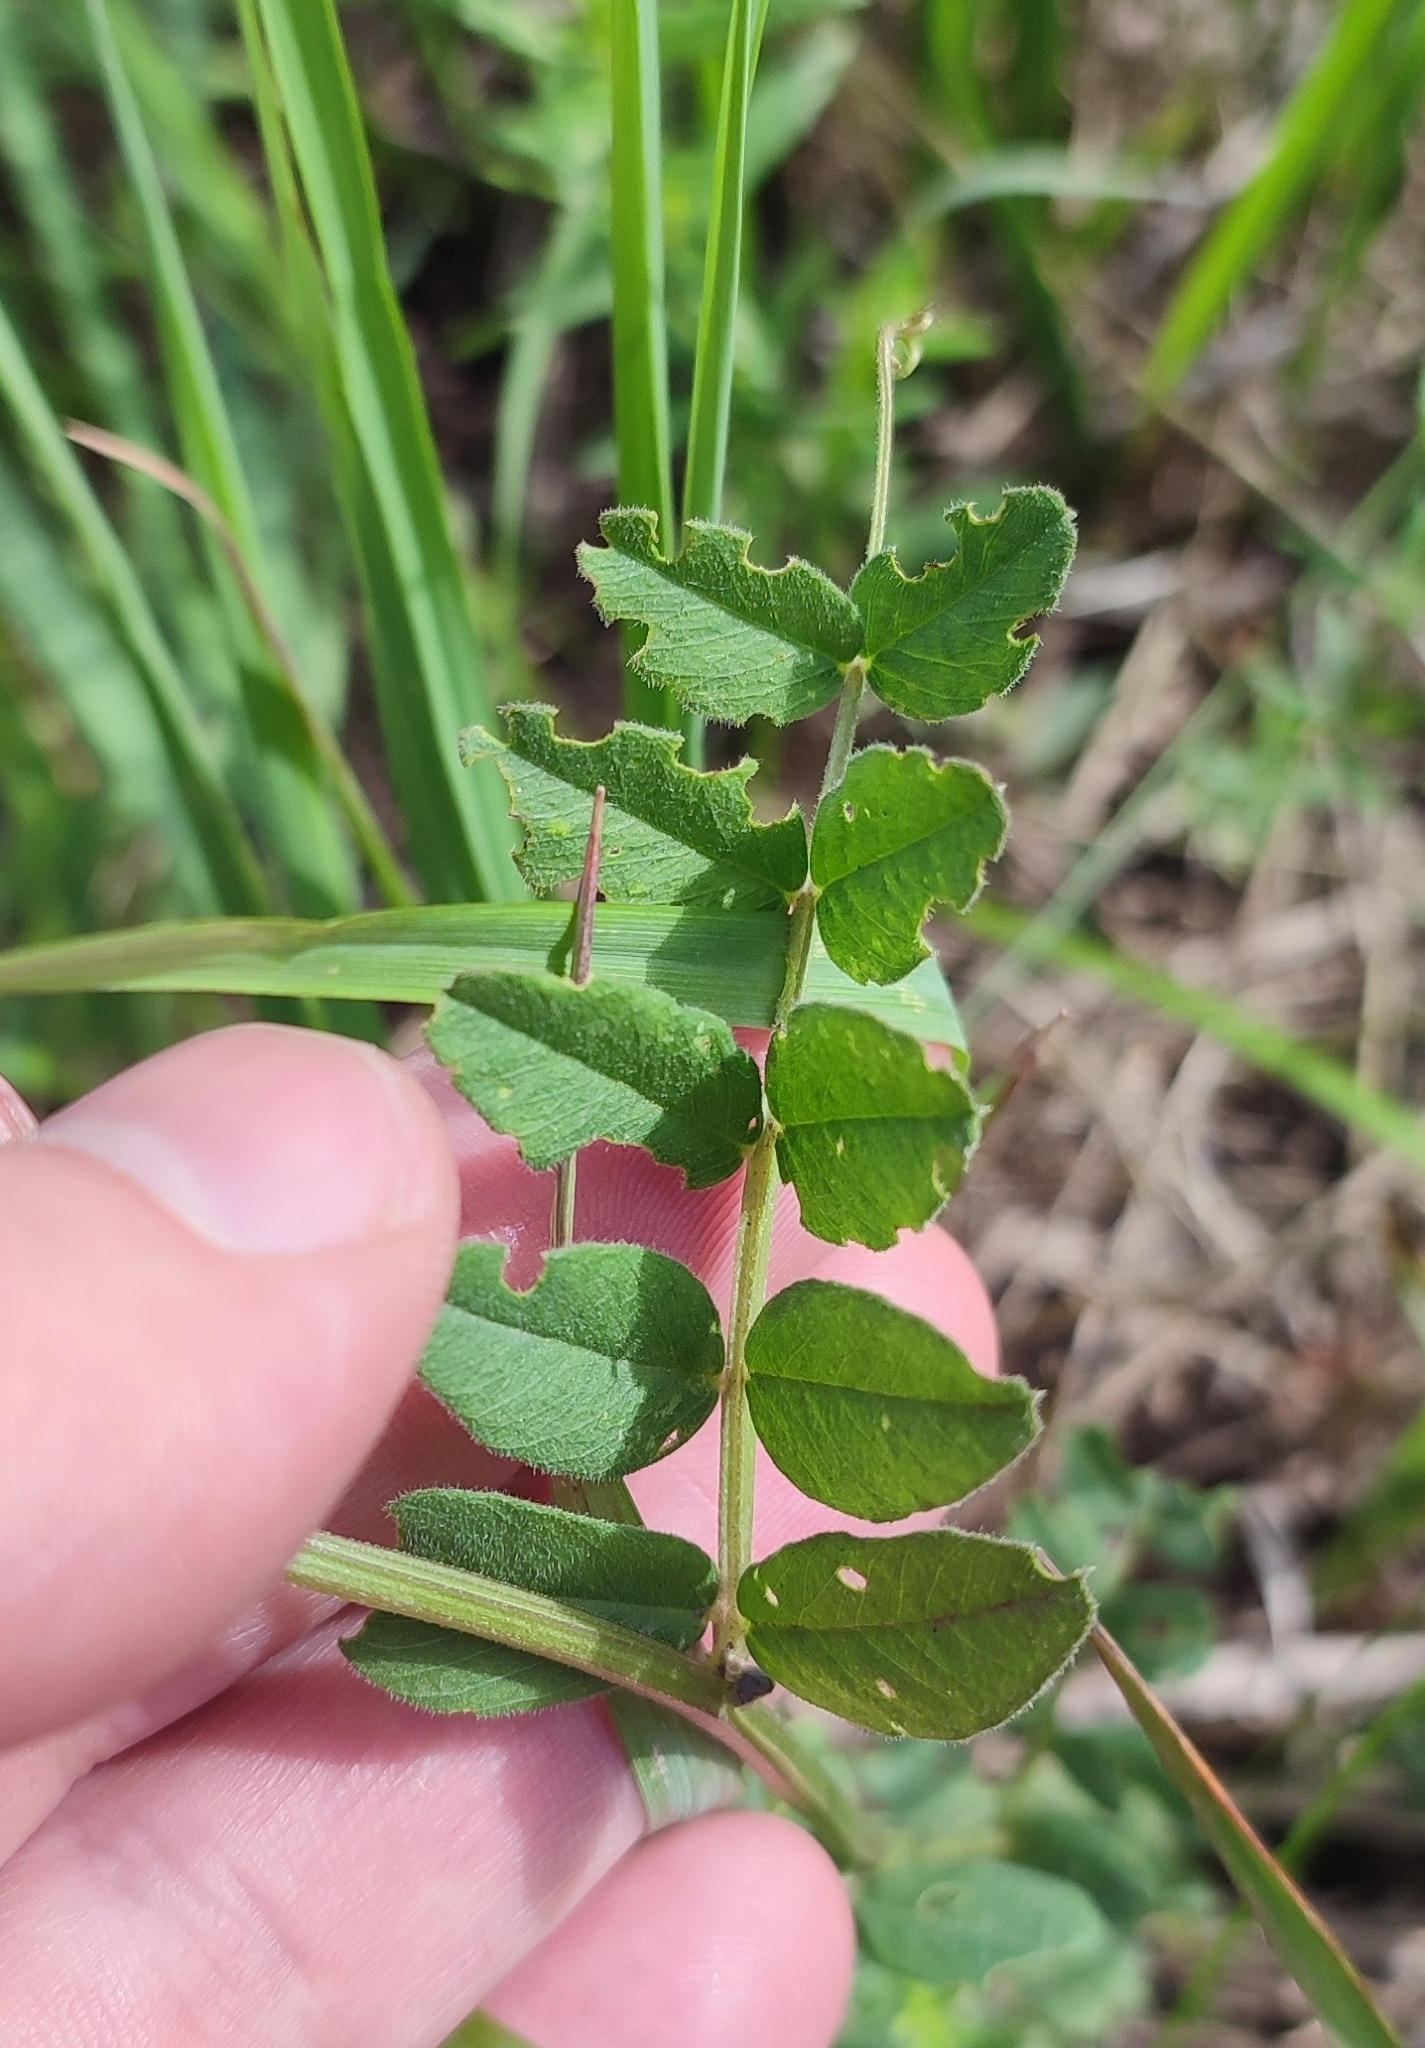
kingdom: Plantae
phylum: Tracheophyta
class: Magnoliopsida
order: Fabales
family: Fabaceae
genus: Vicia
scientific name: Vicia sepium
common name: Bush vetch
